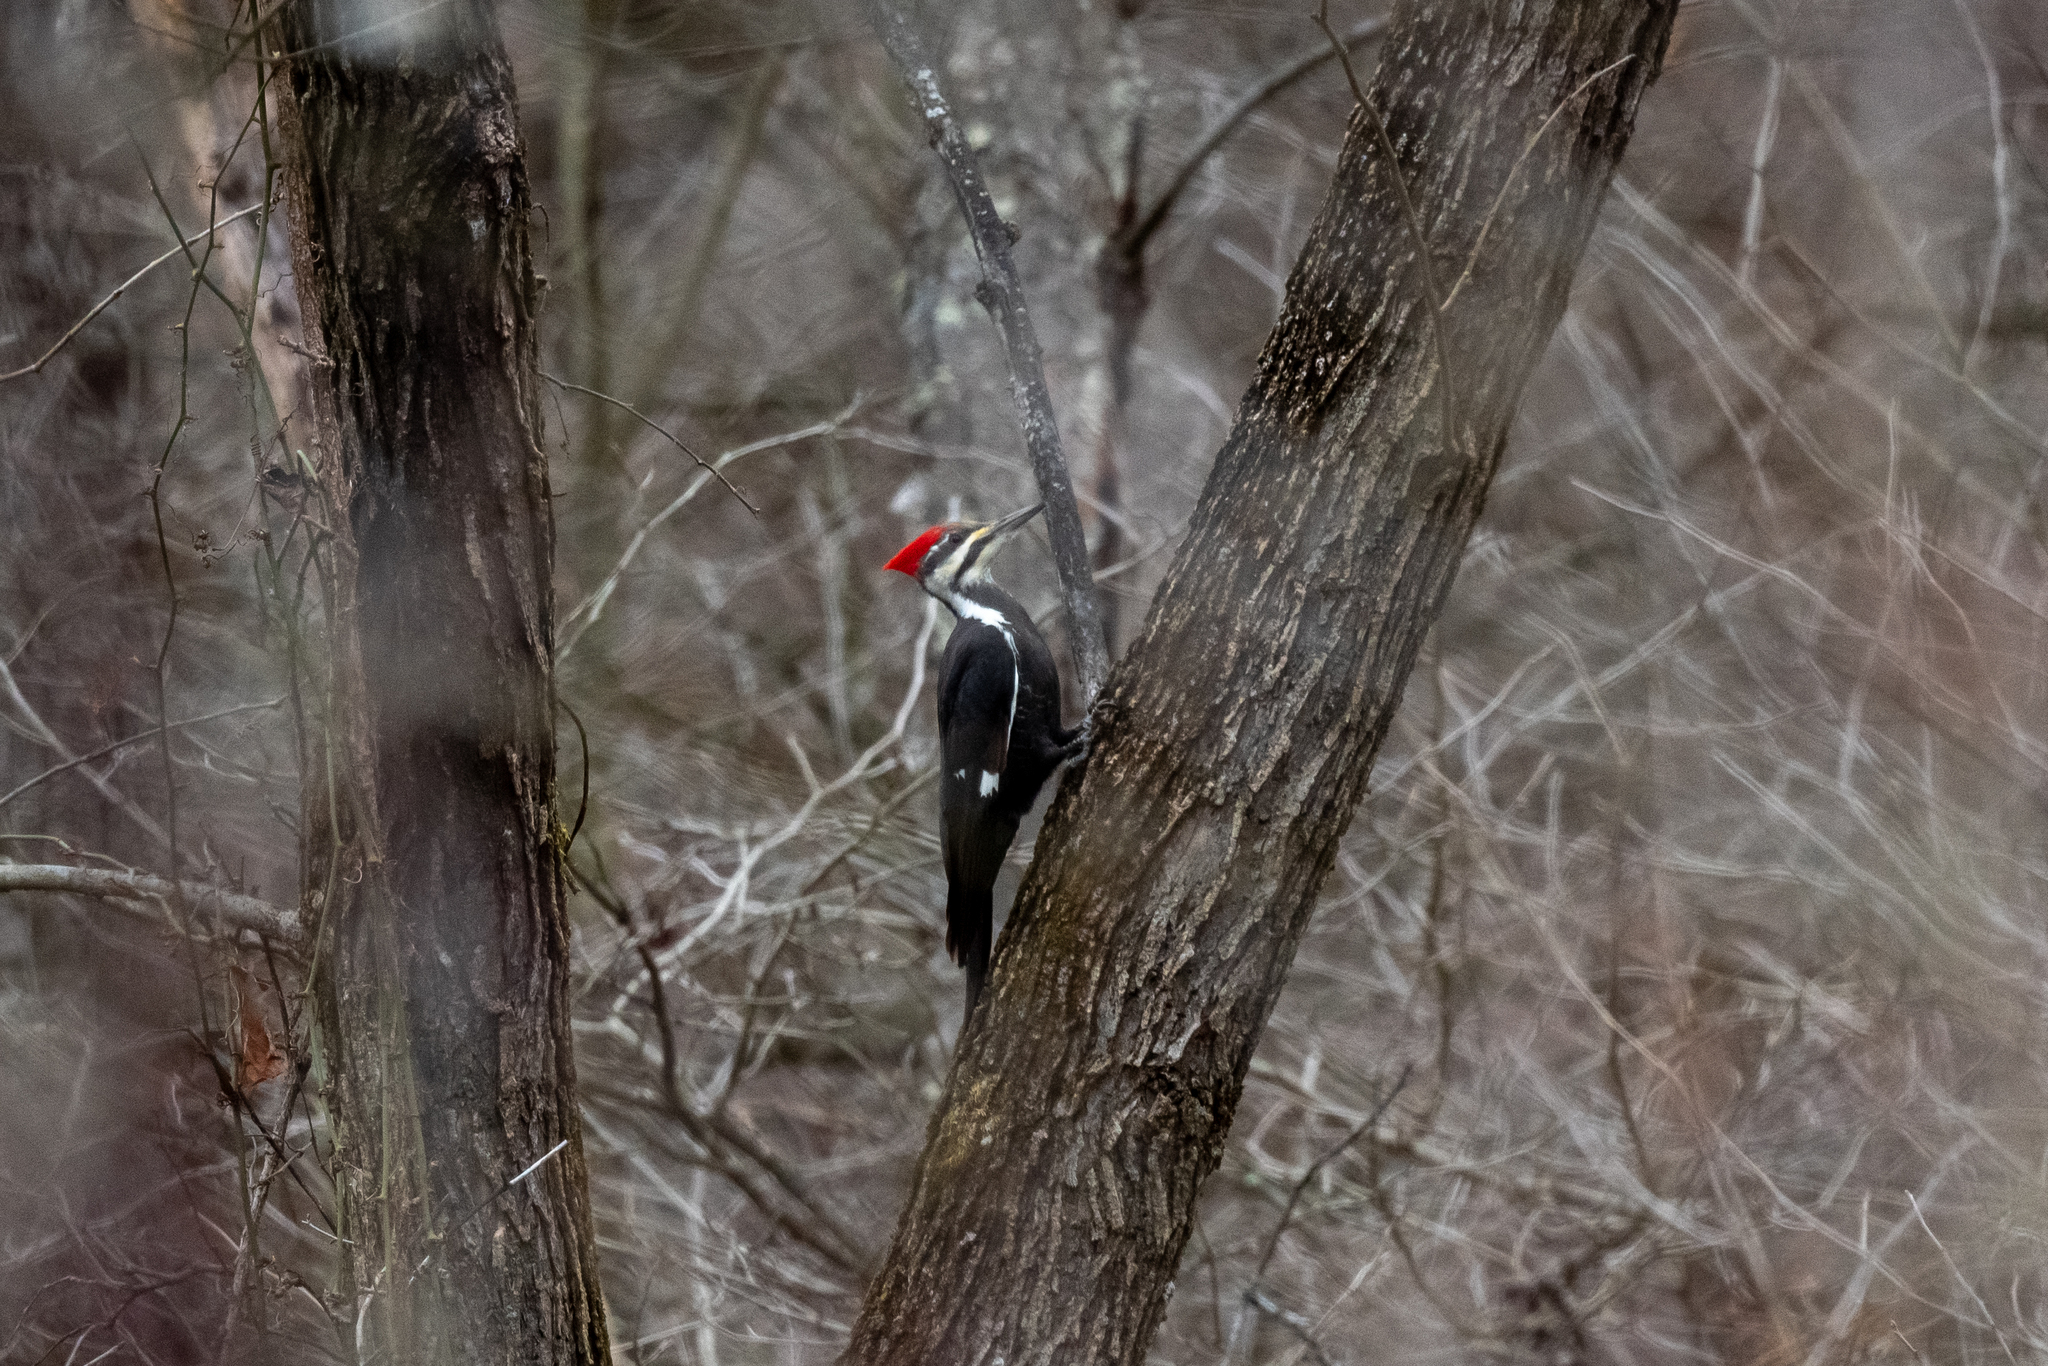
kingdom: Animalia
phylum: Chordata
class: Aves
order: Piciformes
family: Picidae
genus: Dryocopus
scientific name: Dryocopus pileatus
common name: Pileated woodpecker
